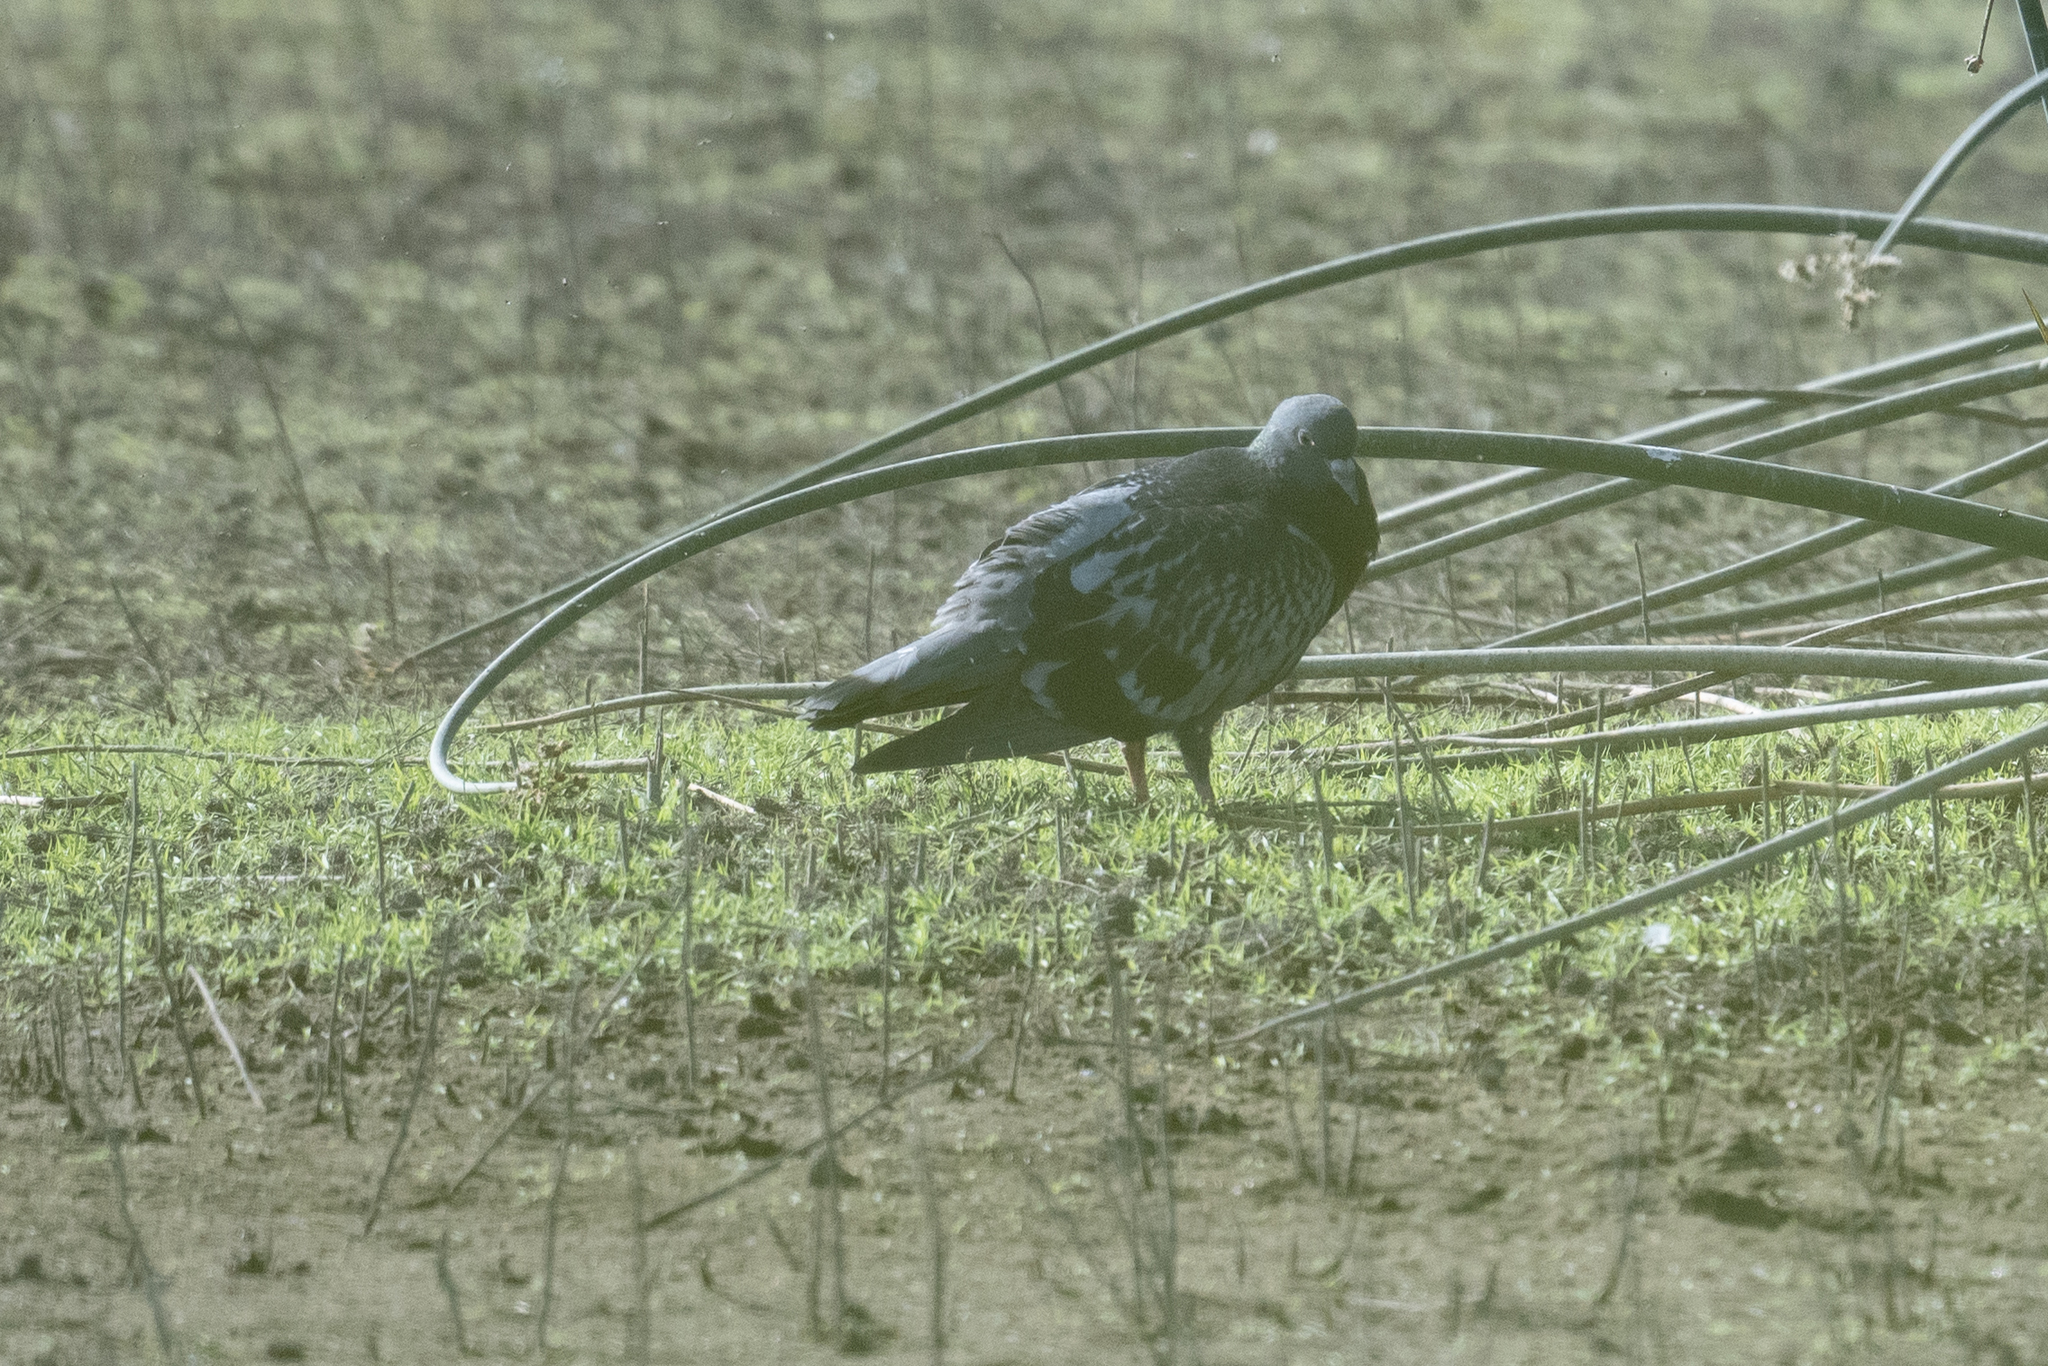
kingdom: Animalia
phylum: Chordata
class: Aves
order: Columbiformes
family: Columbidae
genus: Columba
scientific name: Columba livia
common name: Rock pigeon
